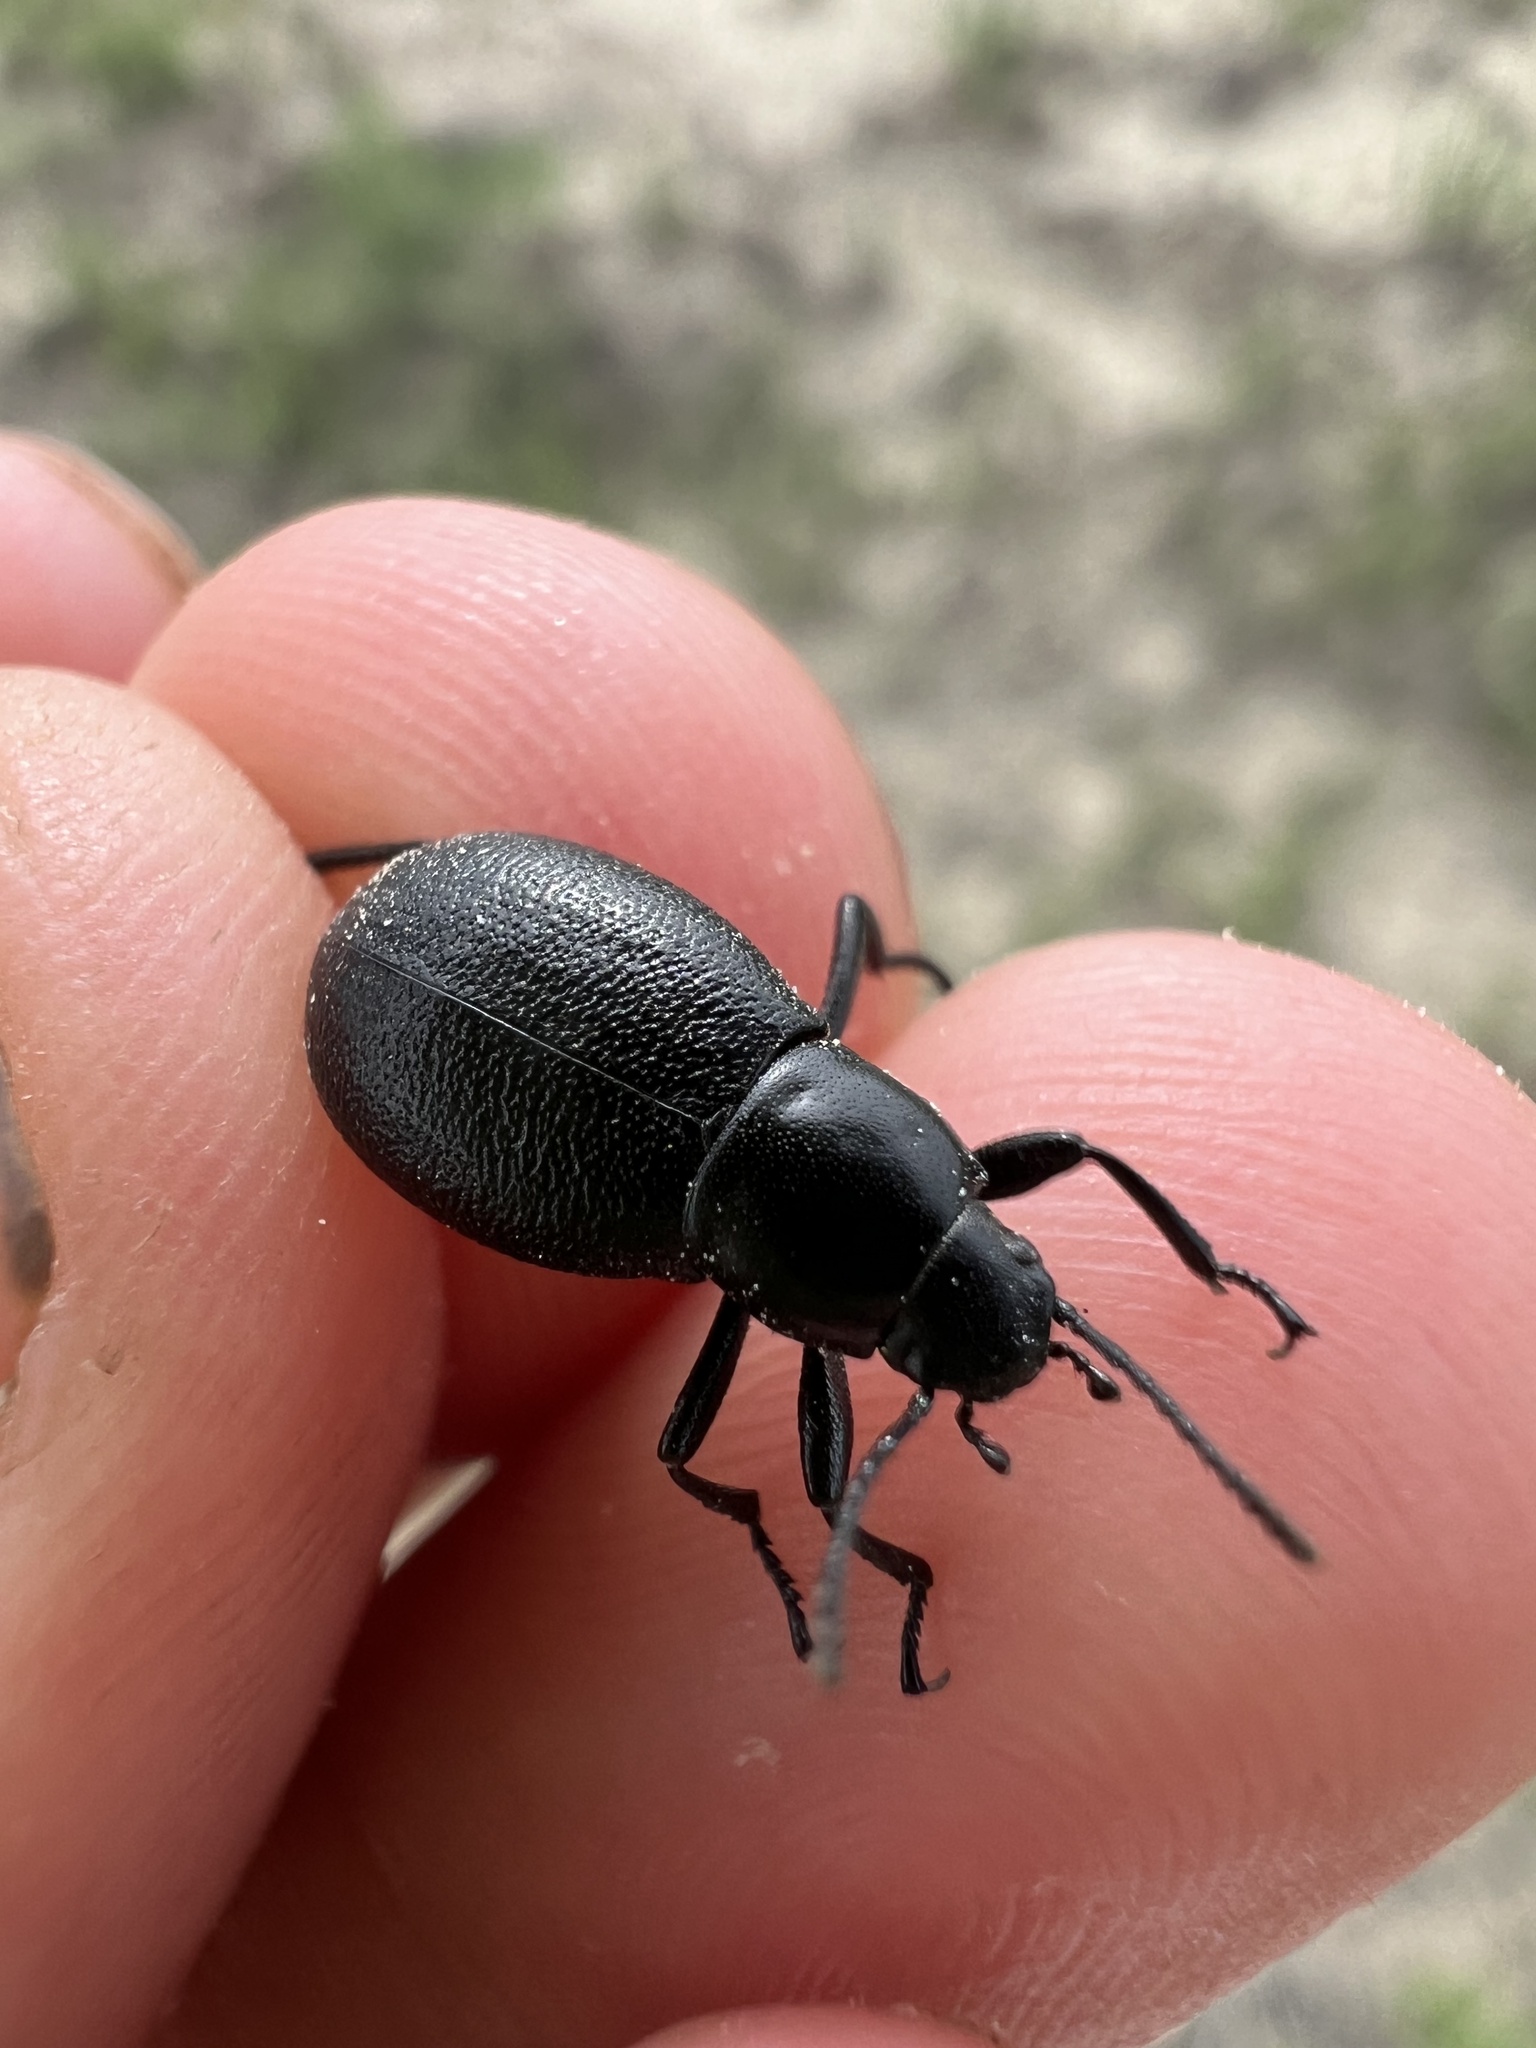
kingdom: Animalia
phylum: Arthropoda
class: Insecta
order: Coleoptera
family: Tenebrionidae
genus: Eleodes
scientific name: Eleodes extricata
